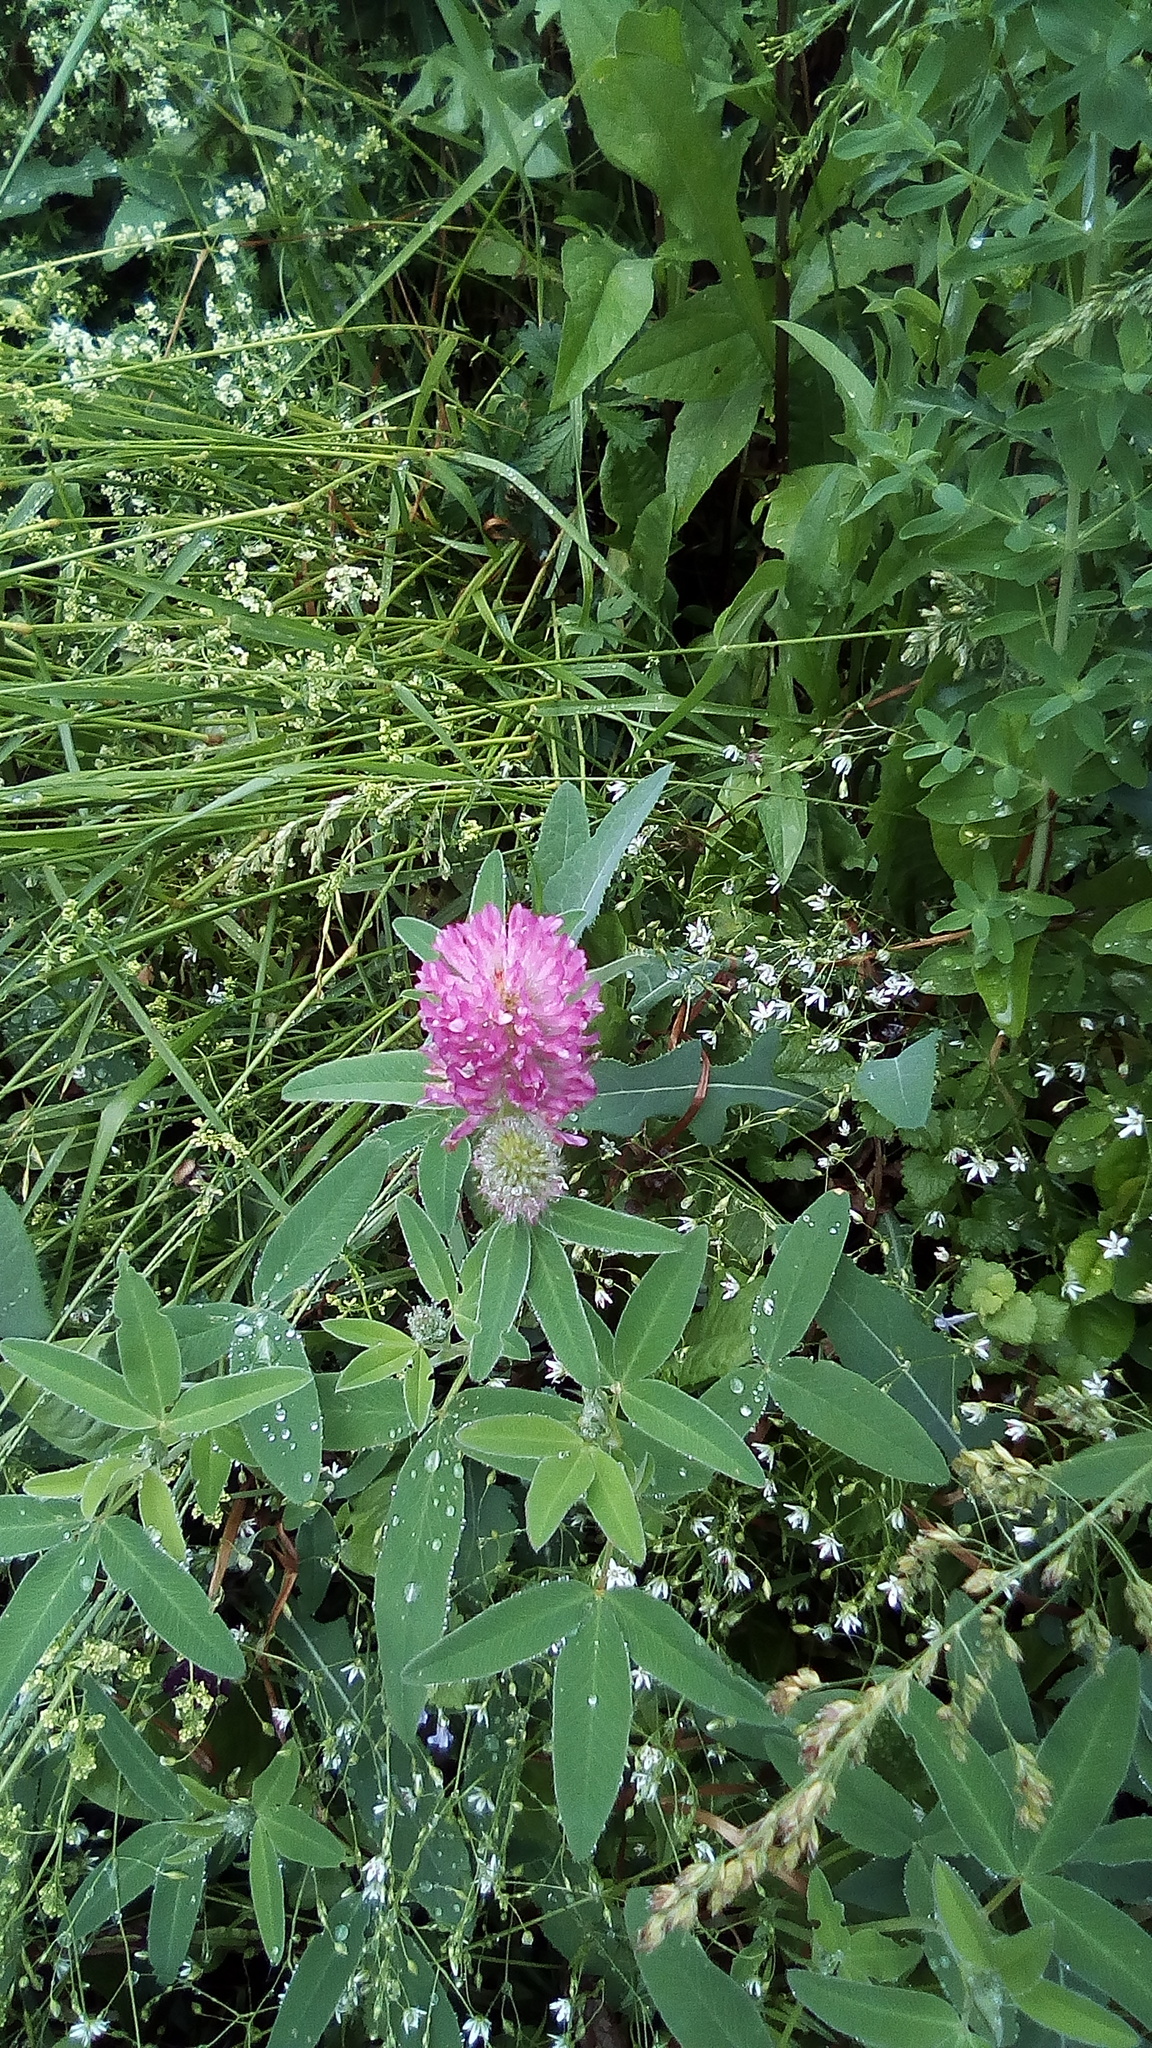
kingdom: Plantae
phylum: Tracheophyta
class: Magnoliopsida
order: Fabales
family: Fabaceae
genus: Trifolium
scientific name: Trifolium medium
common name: Zigzag clover
